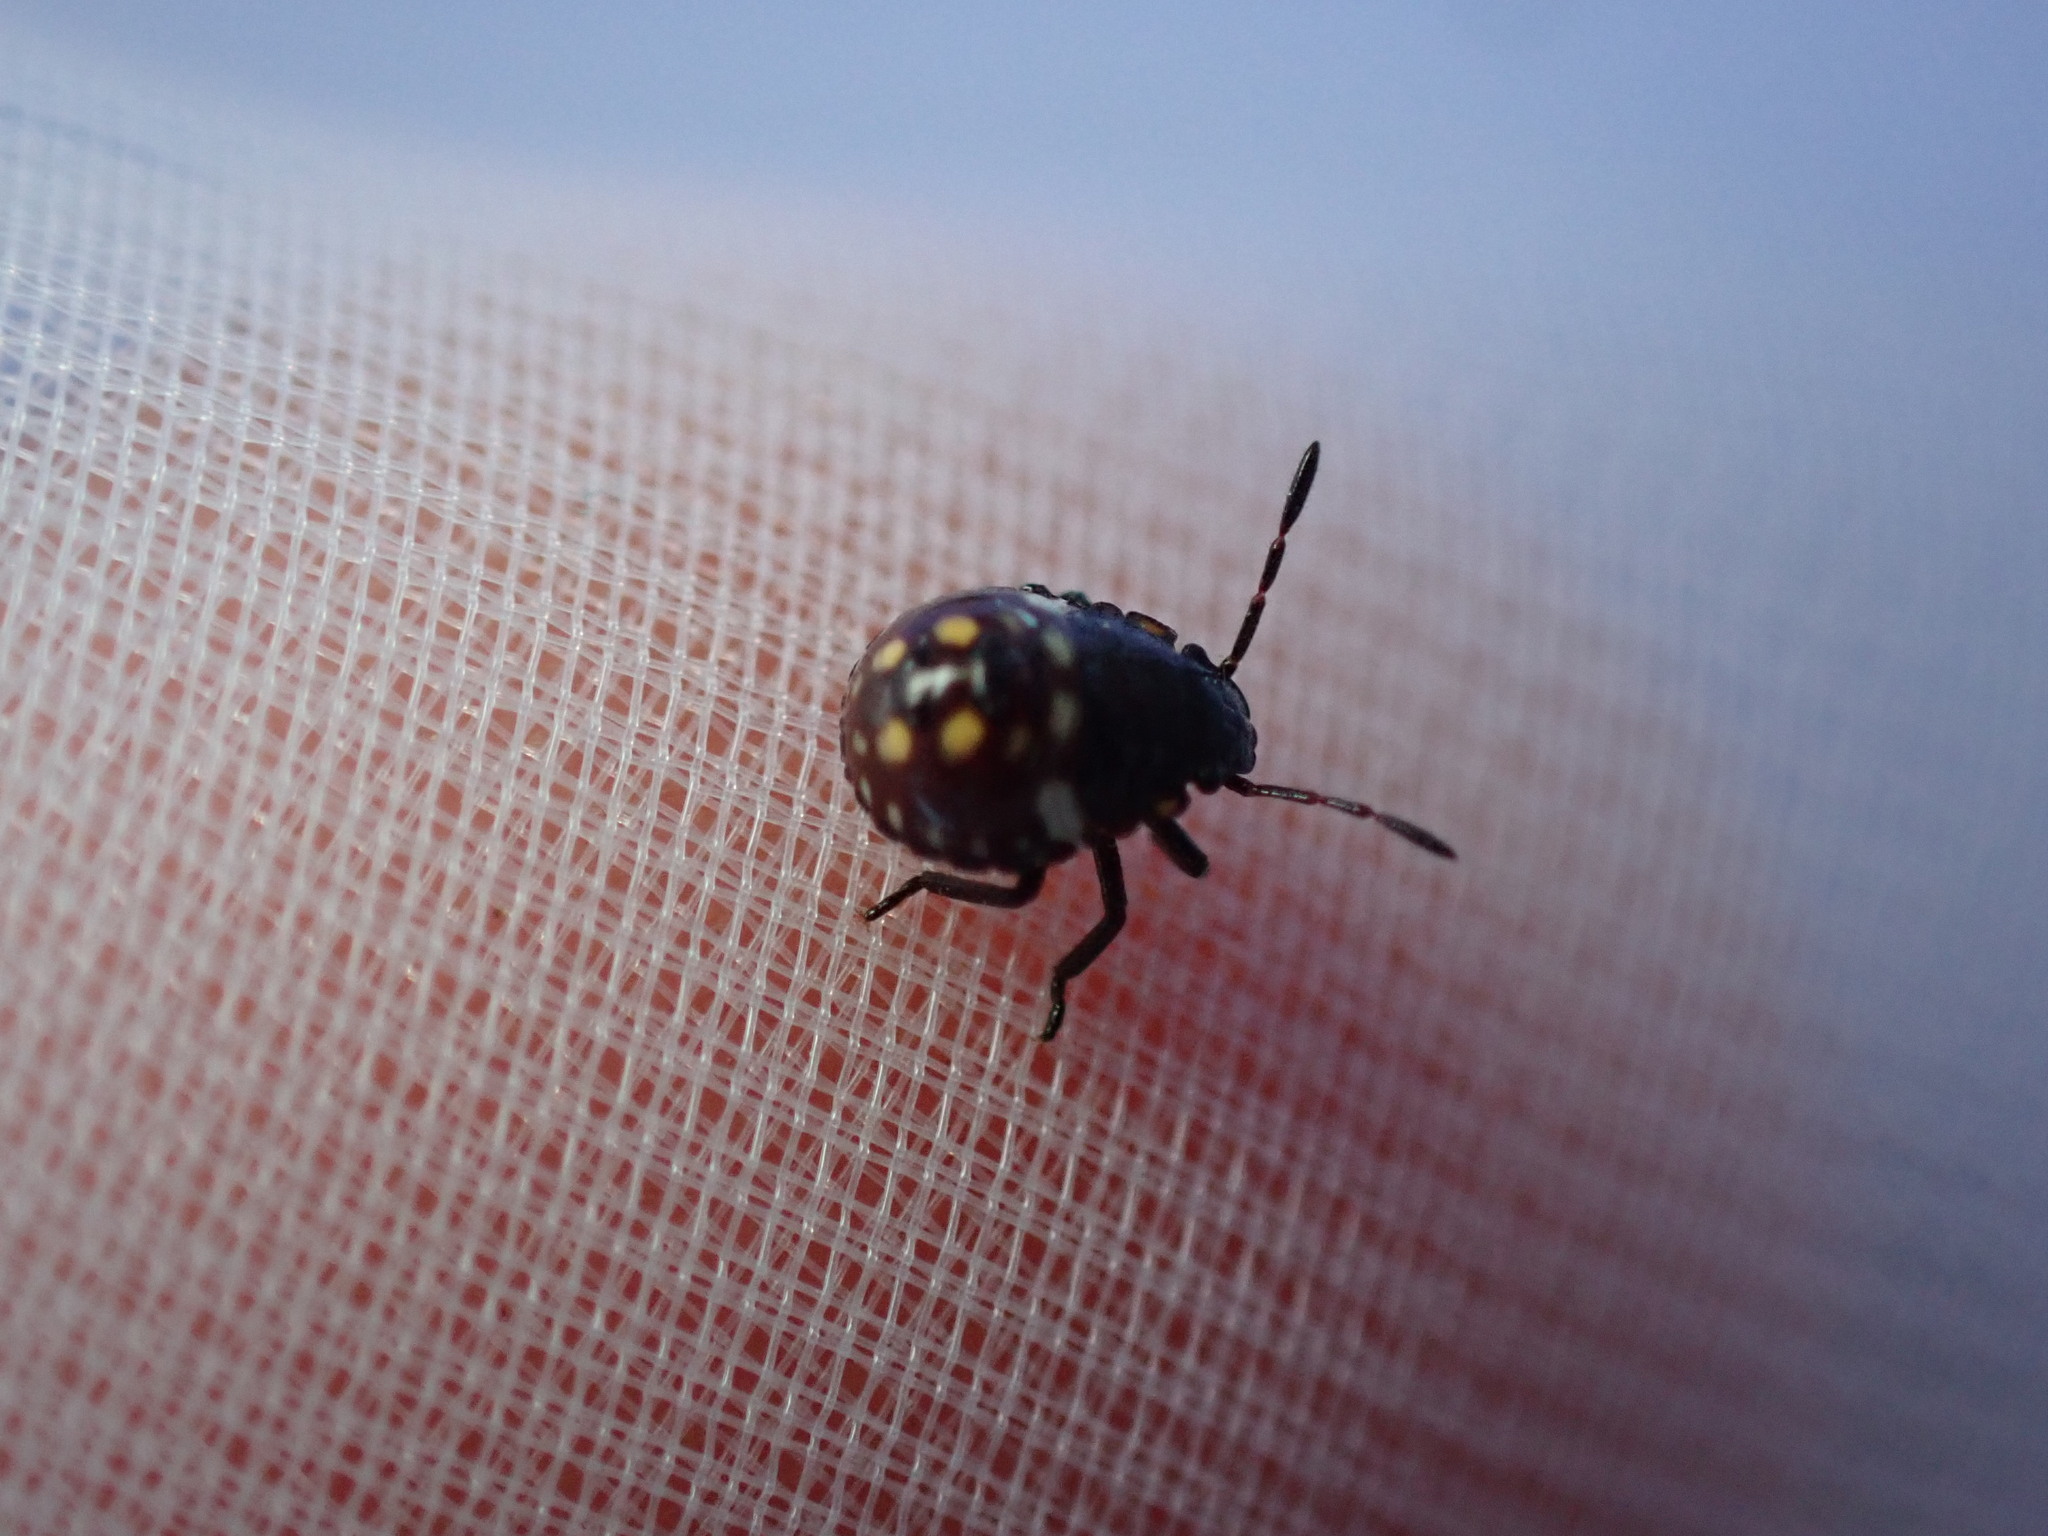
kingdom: Animalia
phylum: Arthropoda
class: Insecta
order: Hemiptera
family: Pentatomidae
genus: Nezara
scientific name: Nezara viridula
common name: Southern green stink bug
